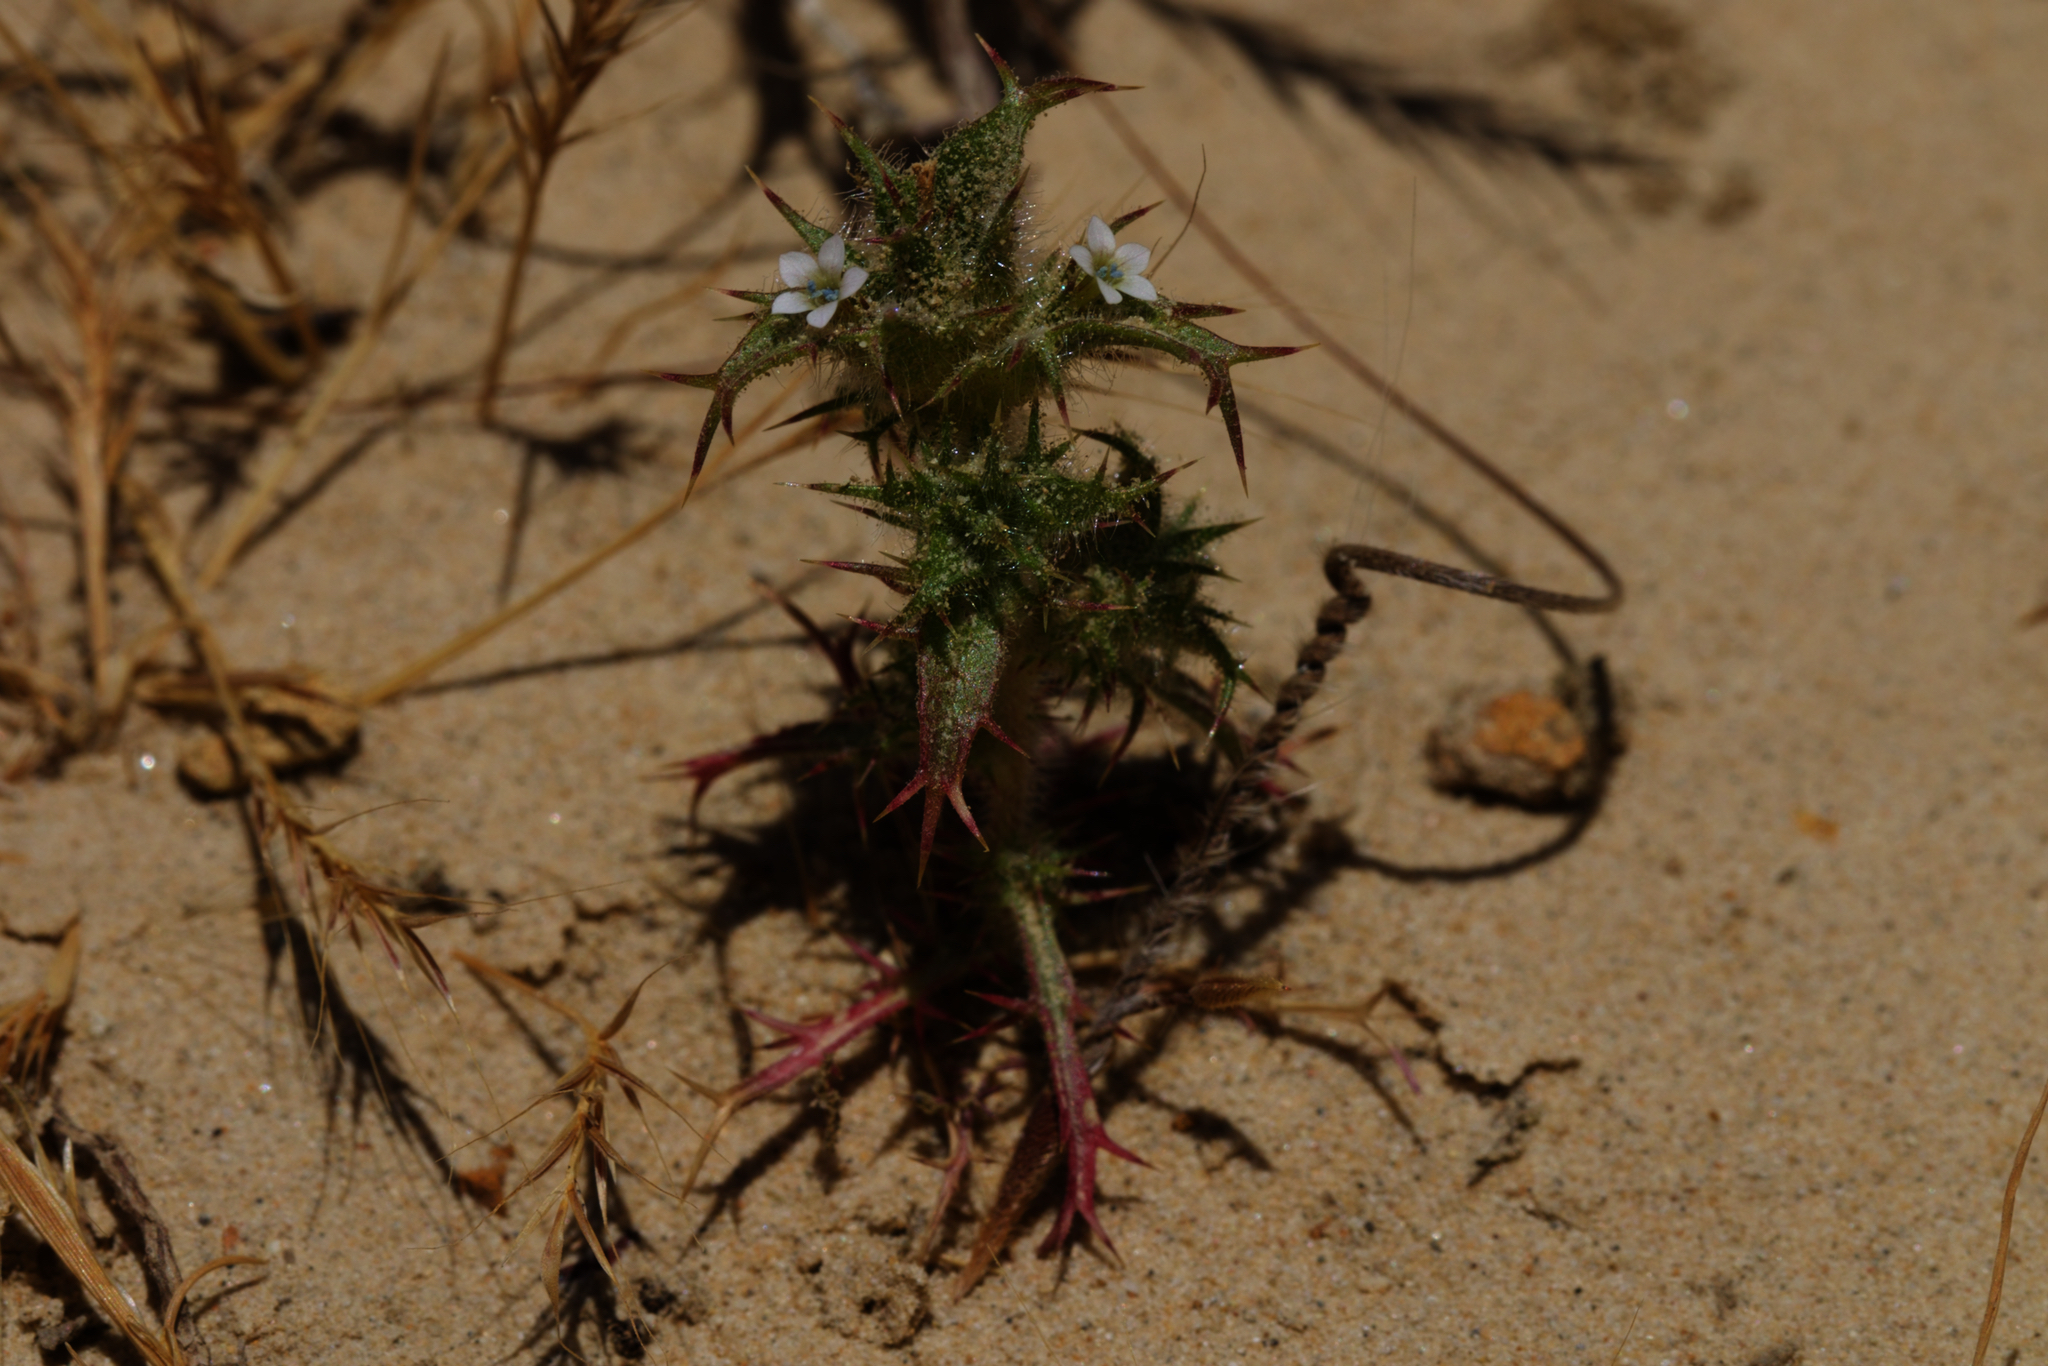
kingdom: Plantae
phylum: Tracheophyta
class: Magnoliopsida
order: Ericales
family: Polemoniaceae
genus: Navarretia
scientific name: Navarretia atractyloides
